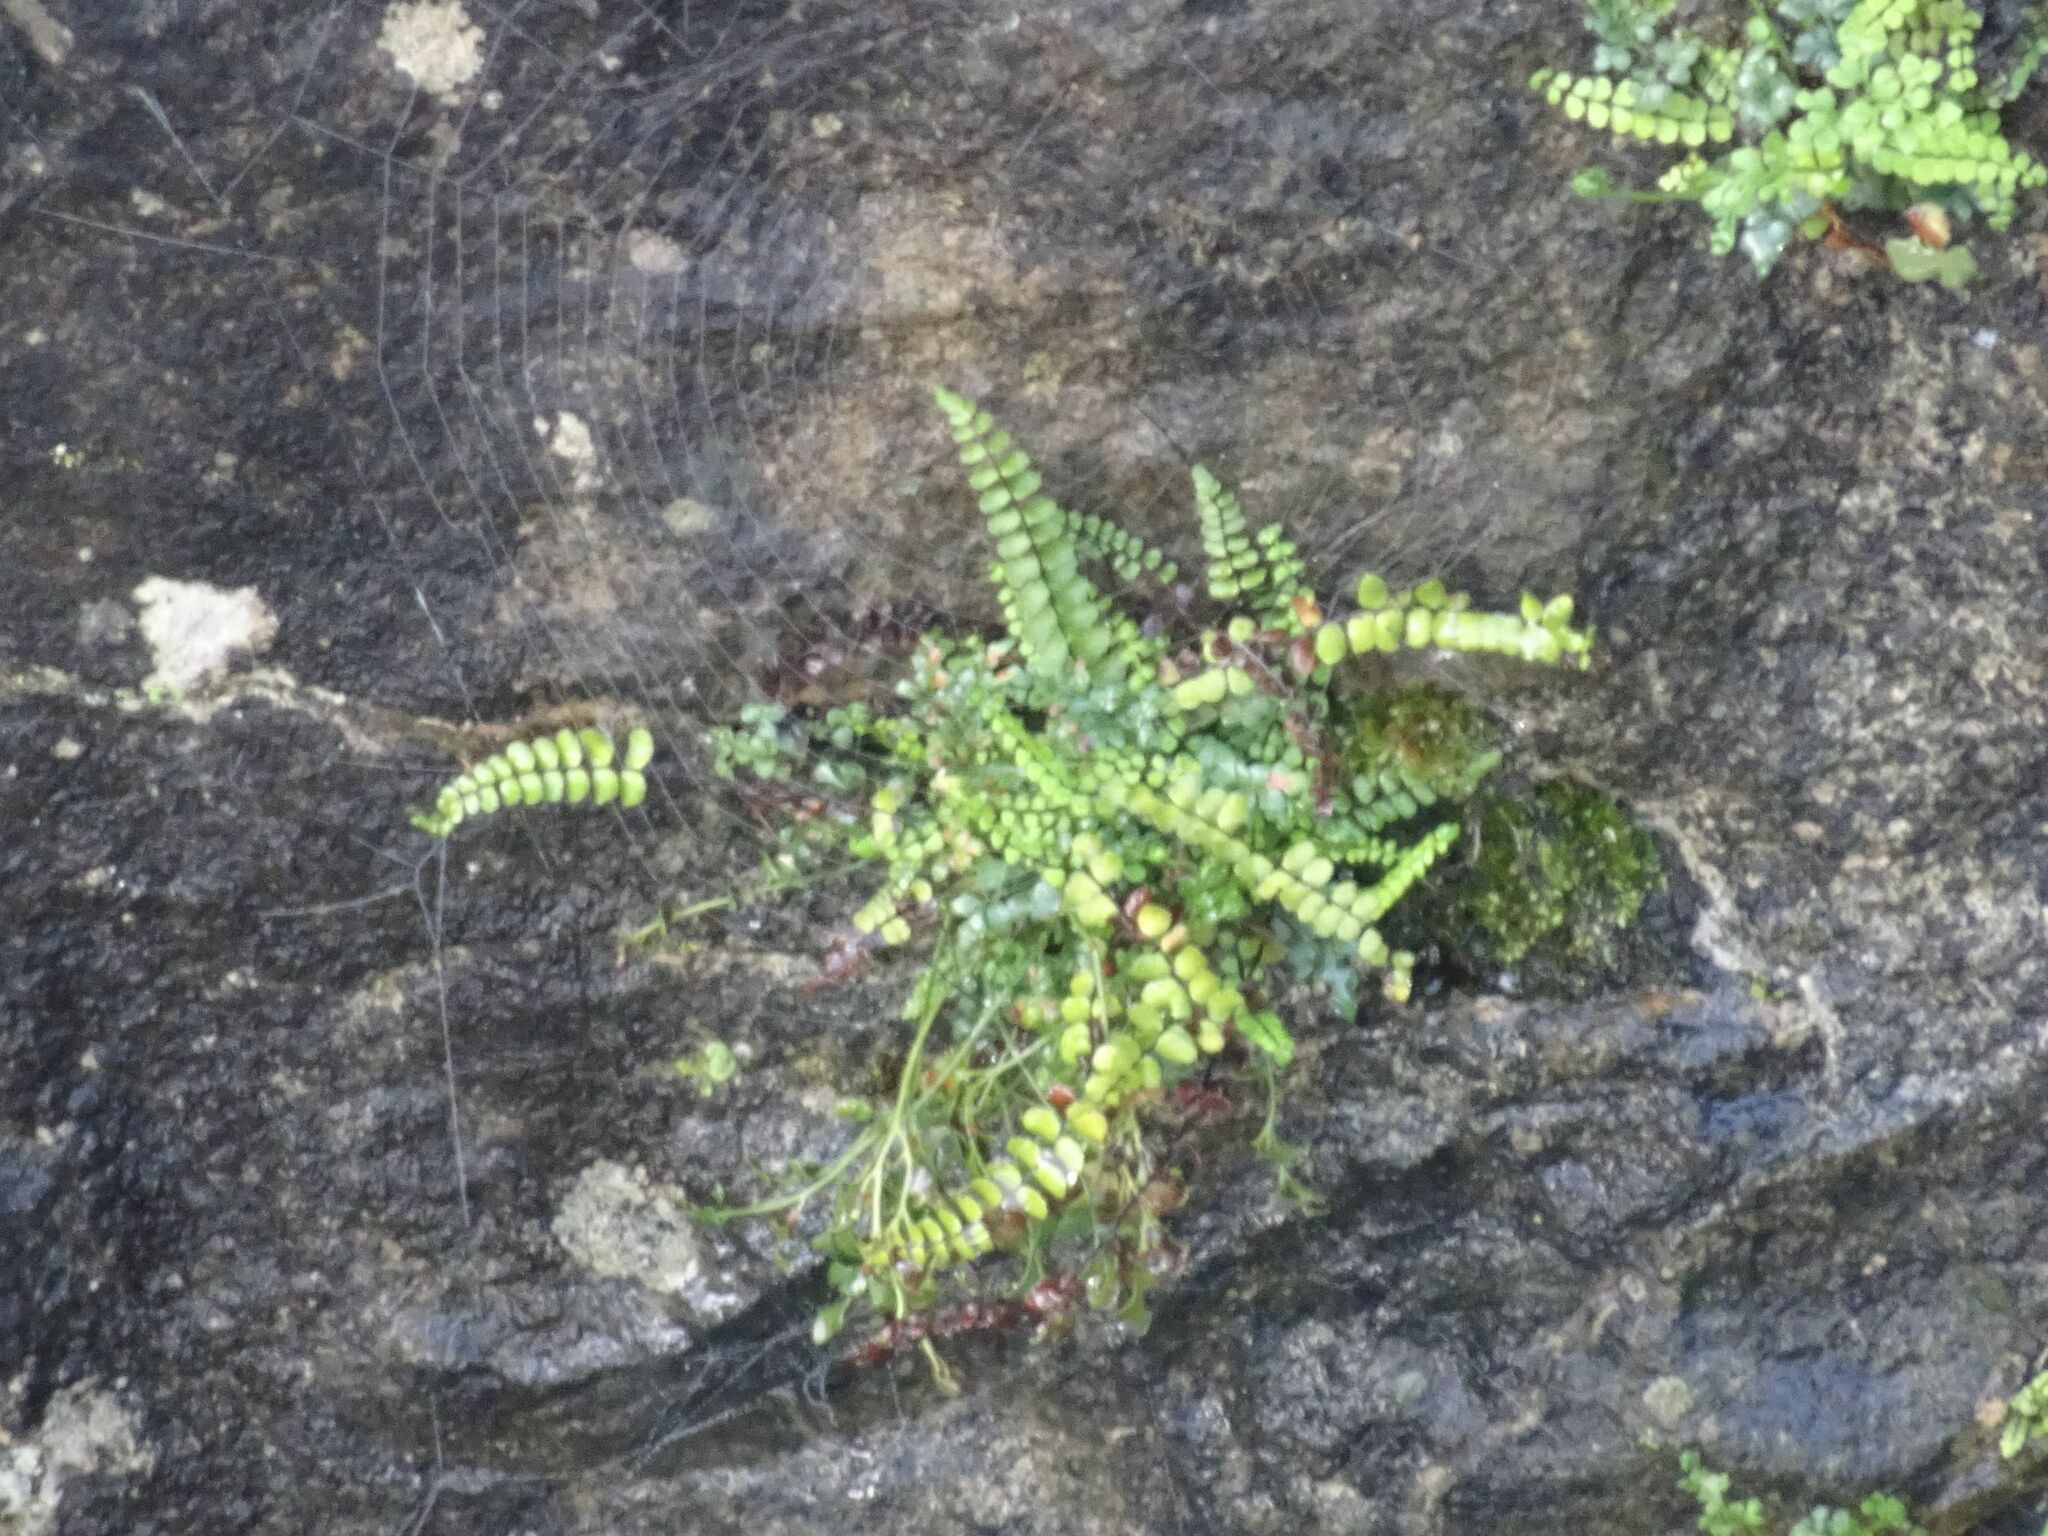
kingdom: Plantae
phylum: Tracheophyta
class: Polypodiopsida
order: Polypodiales
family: Aspleniaceae
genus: Asplenium
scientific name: Asplenium trichomanes
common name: Maidenhair spleenwort
